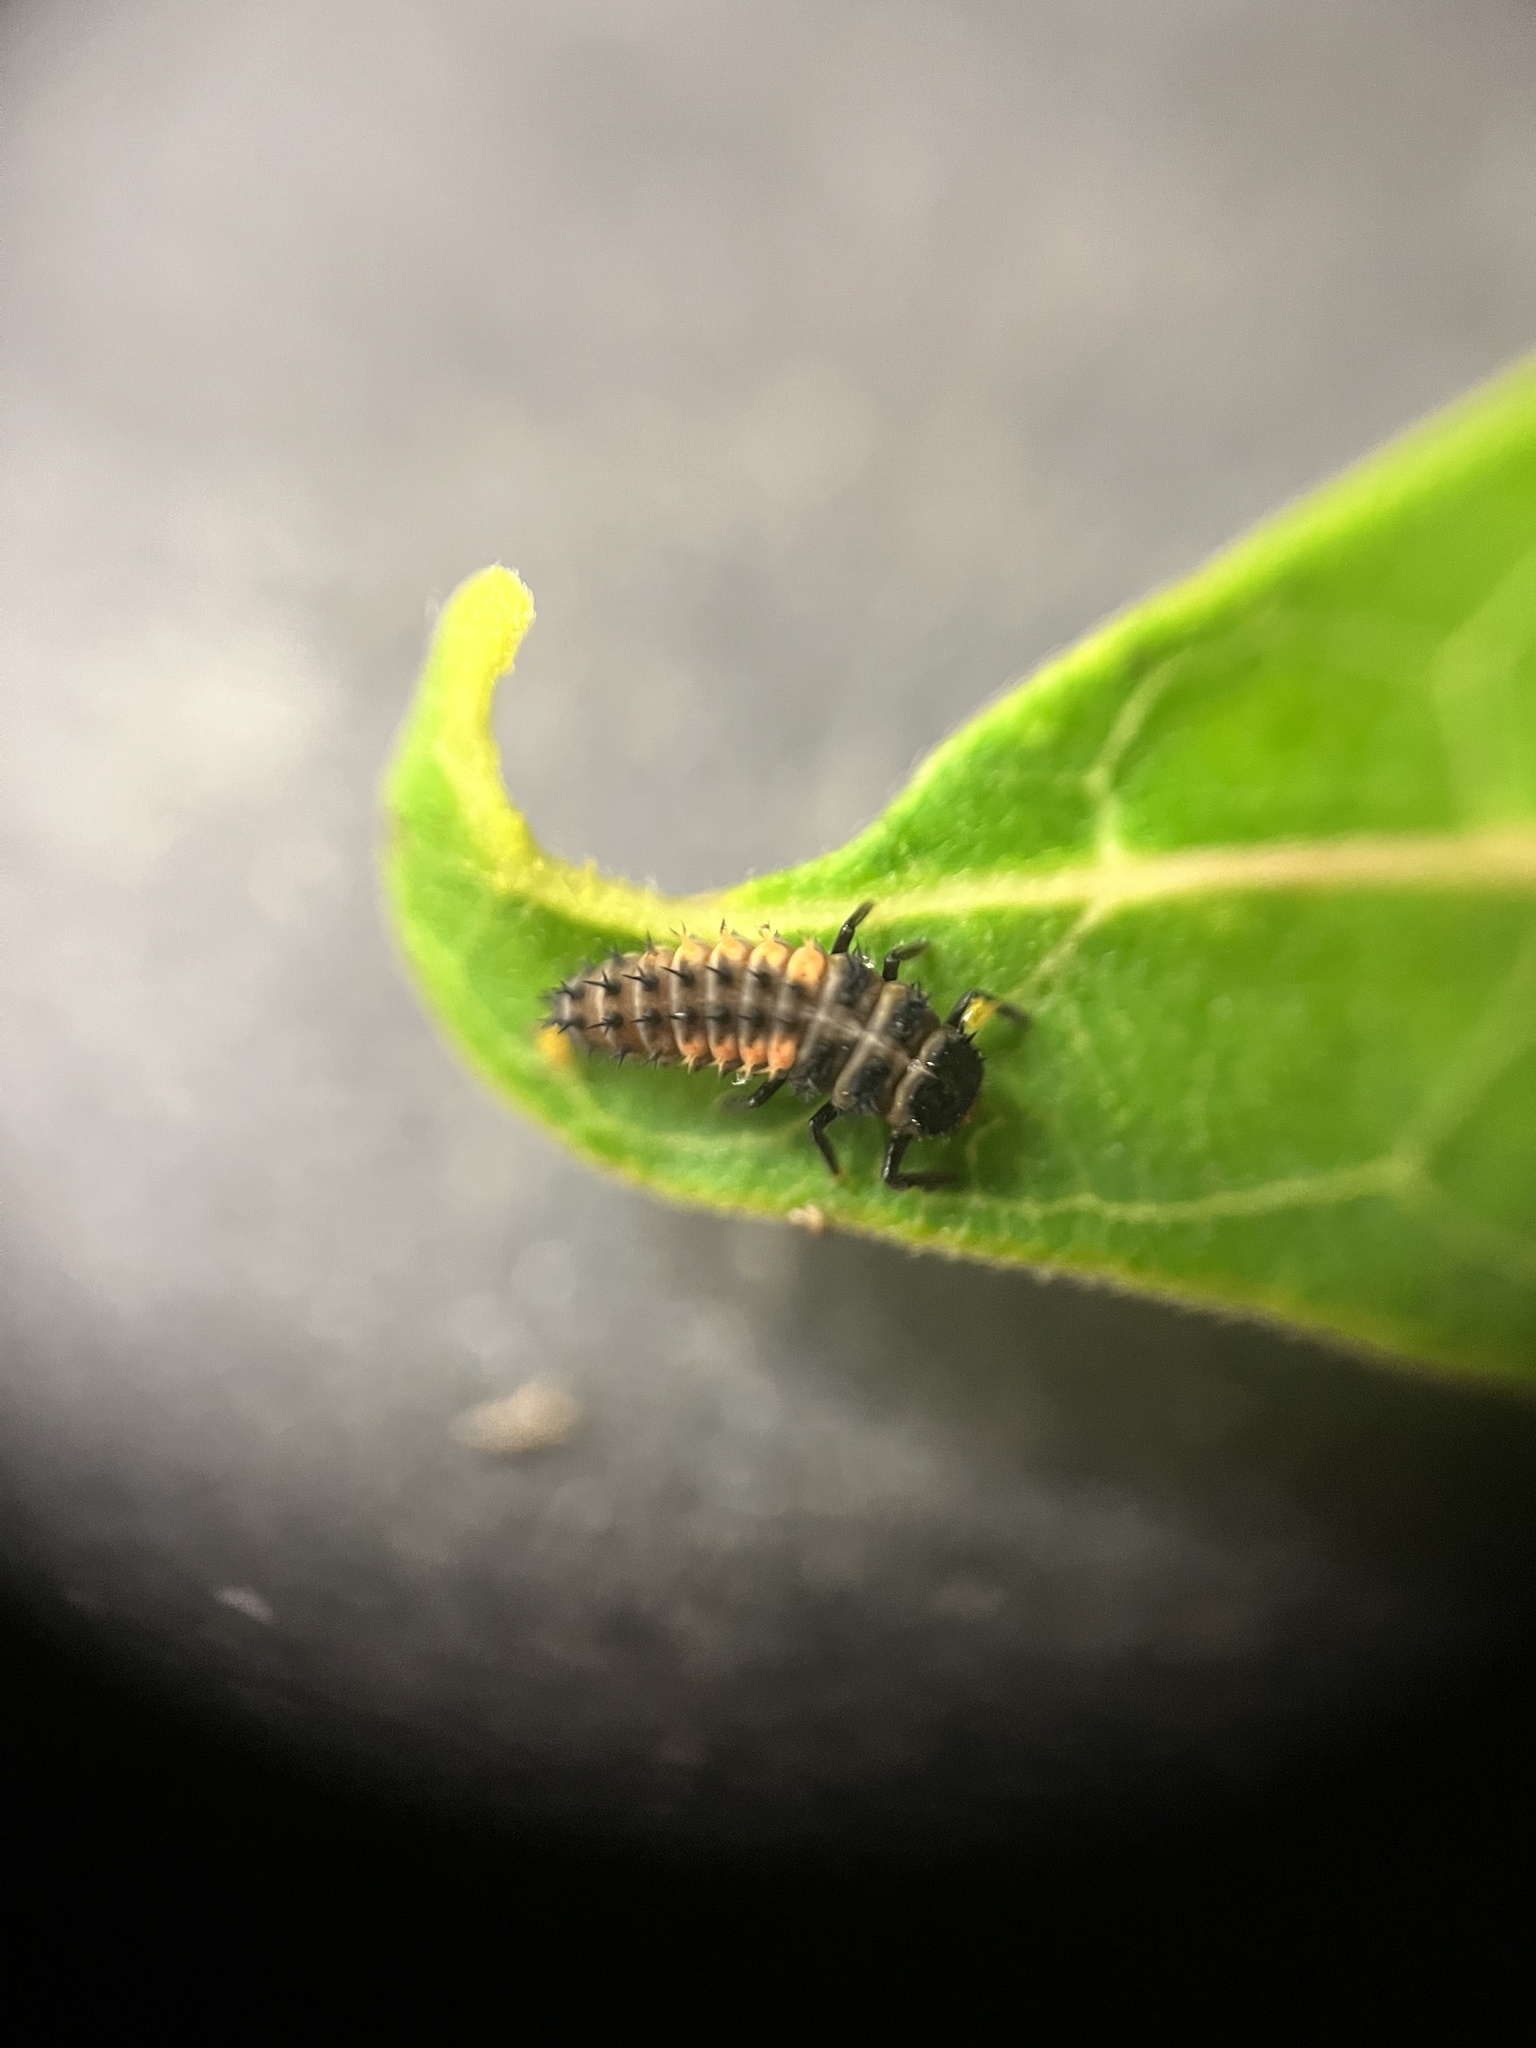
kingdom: Animalia
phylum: Arthropoda
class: Insecta
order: Coleoptera
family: Coccinellidae
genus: Harmonia
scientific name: Harmonia axyridis
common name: Harlequin ladybird
